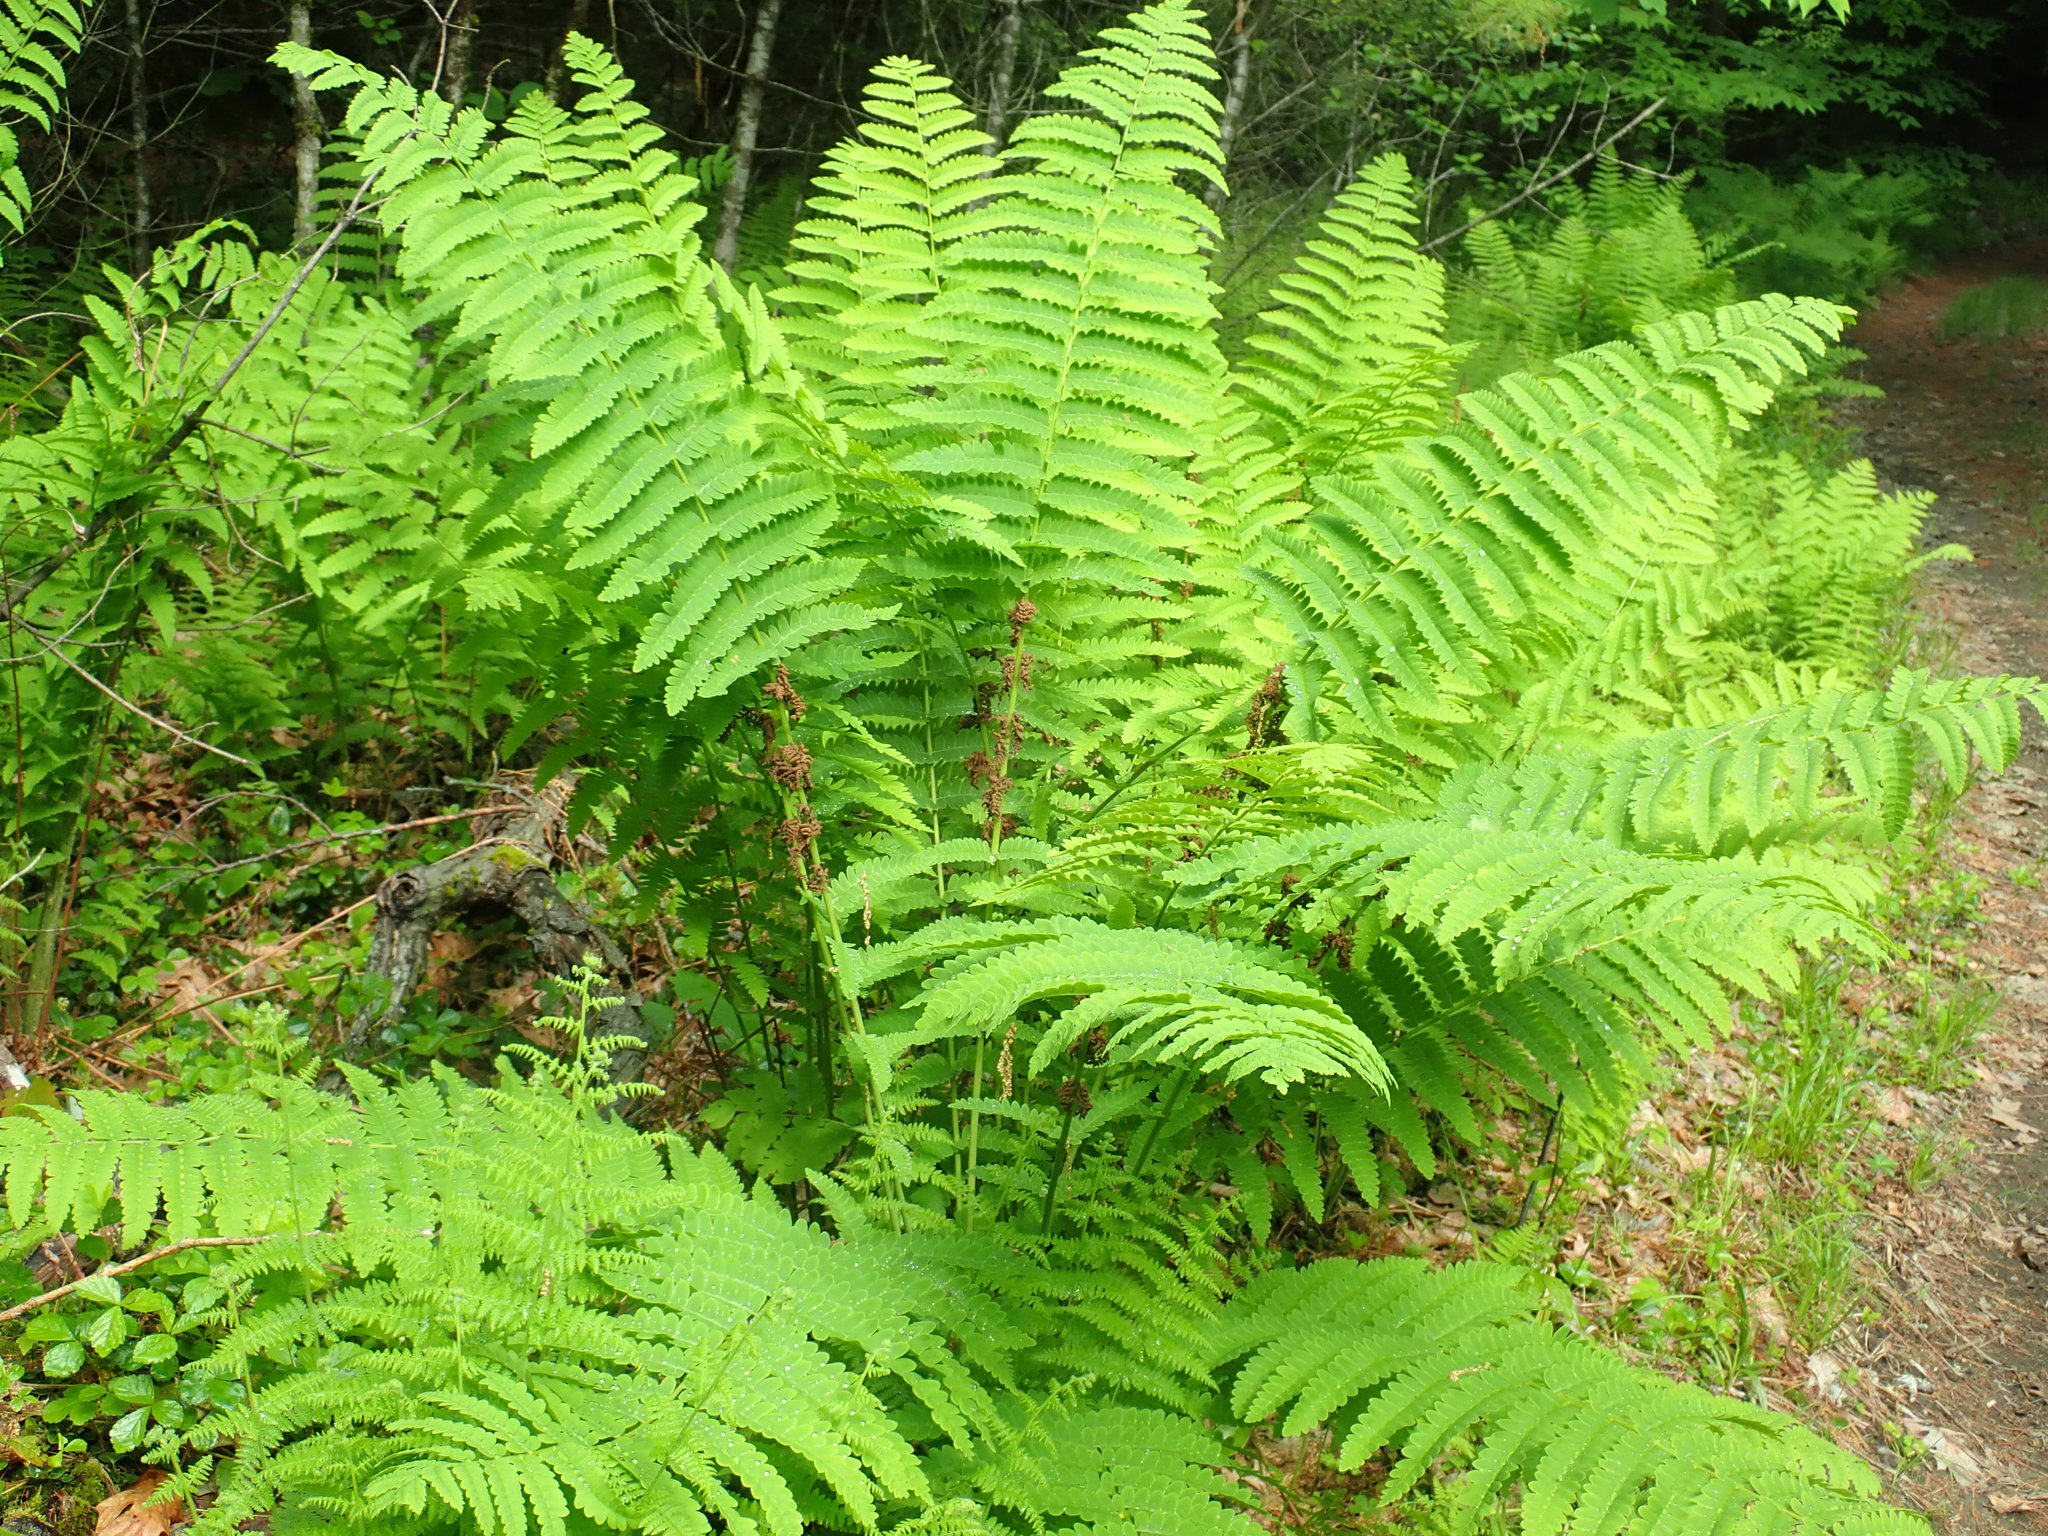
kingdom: Plantae
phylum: Tracheophyta
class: Polypodiopsida
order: Osmundales
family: Osmundaceae
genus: Claytosmunda
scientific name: Claytosmunda claytoniana
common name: Clayton's fern
